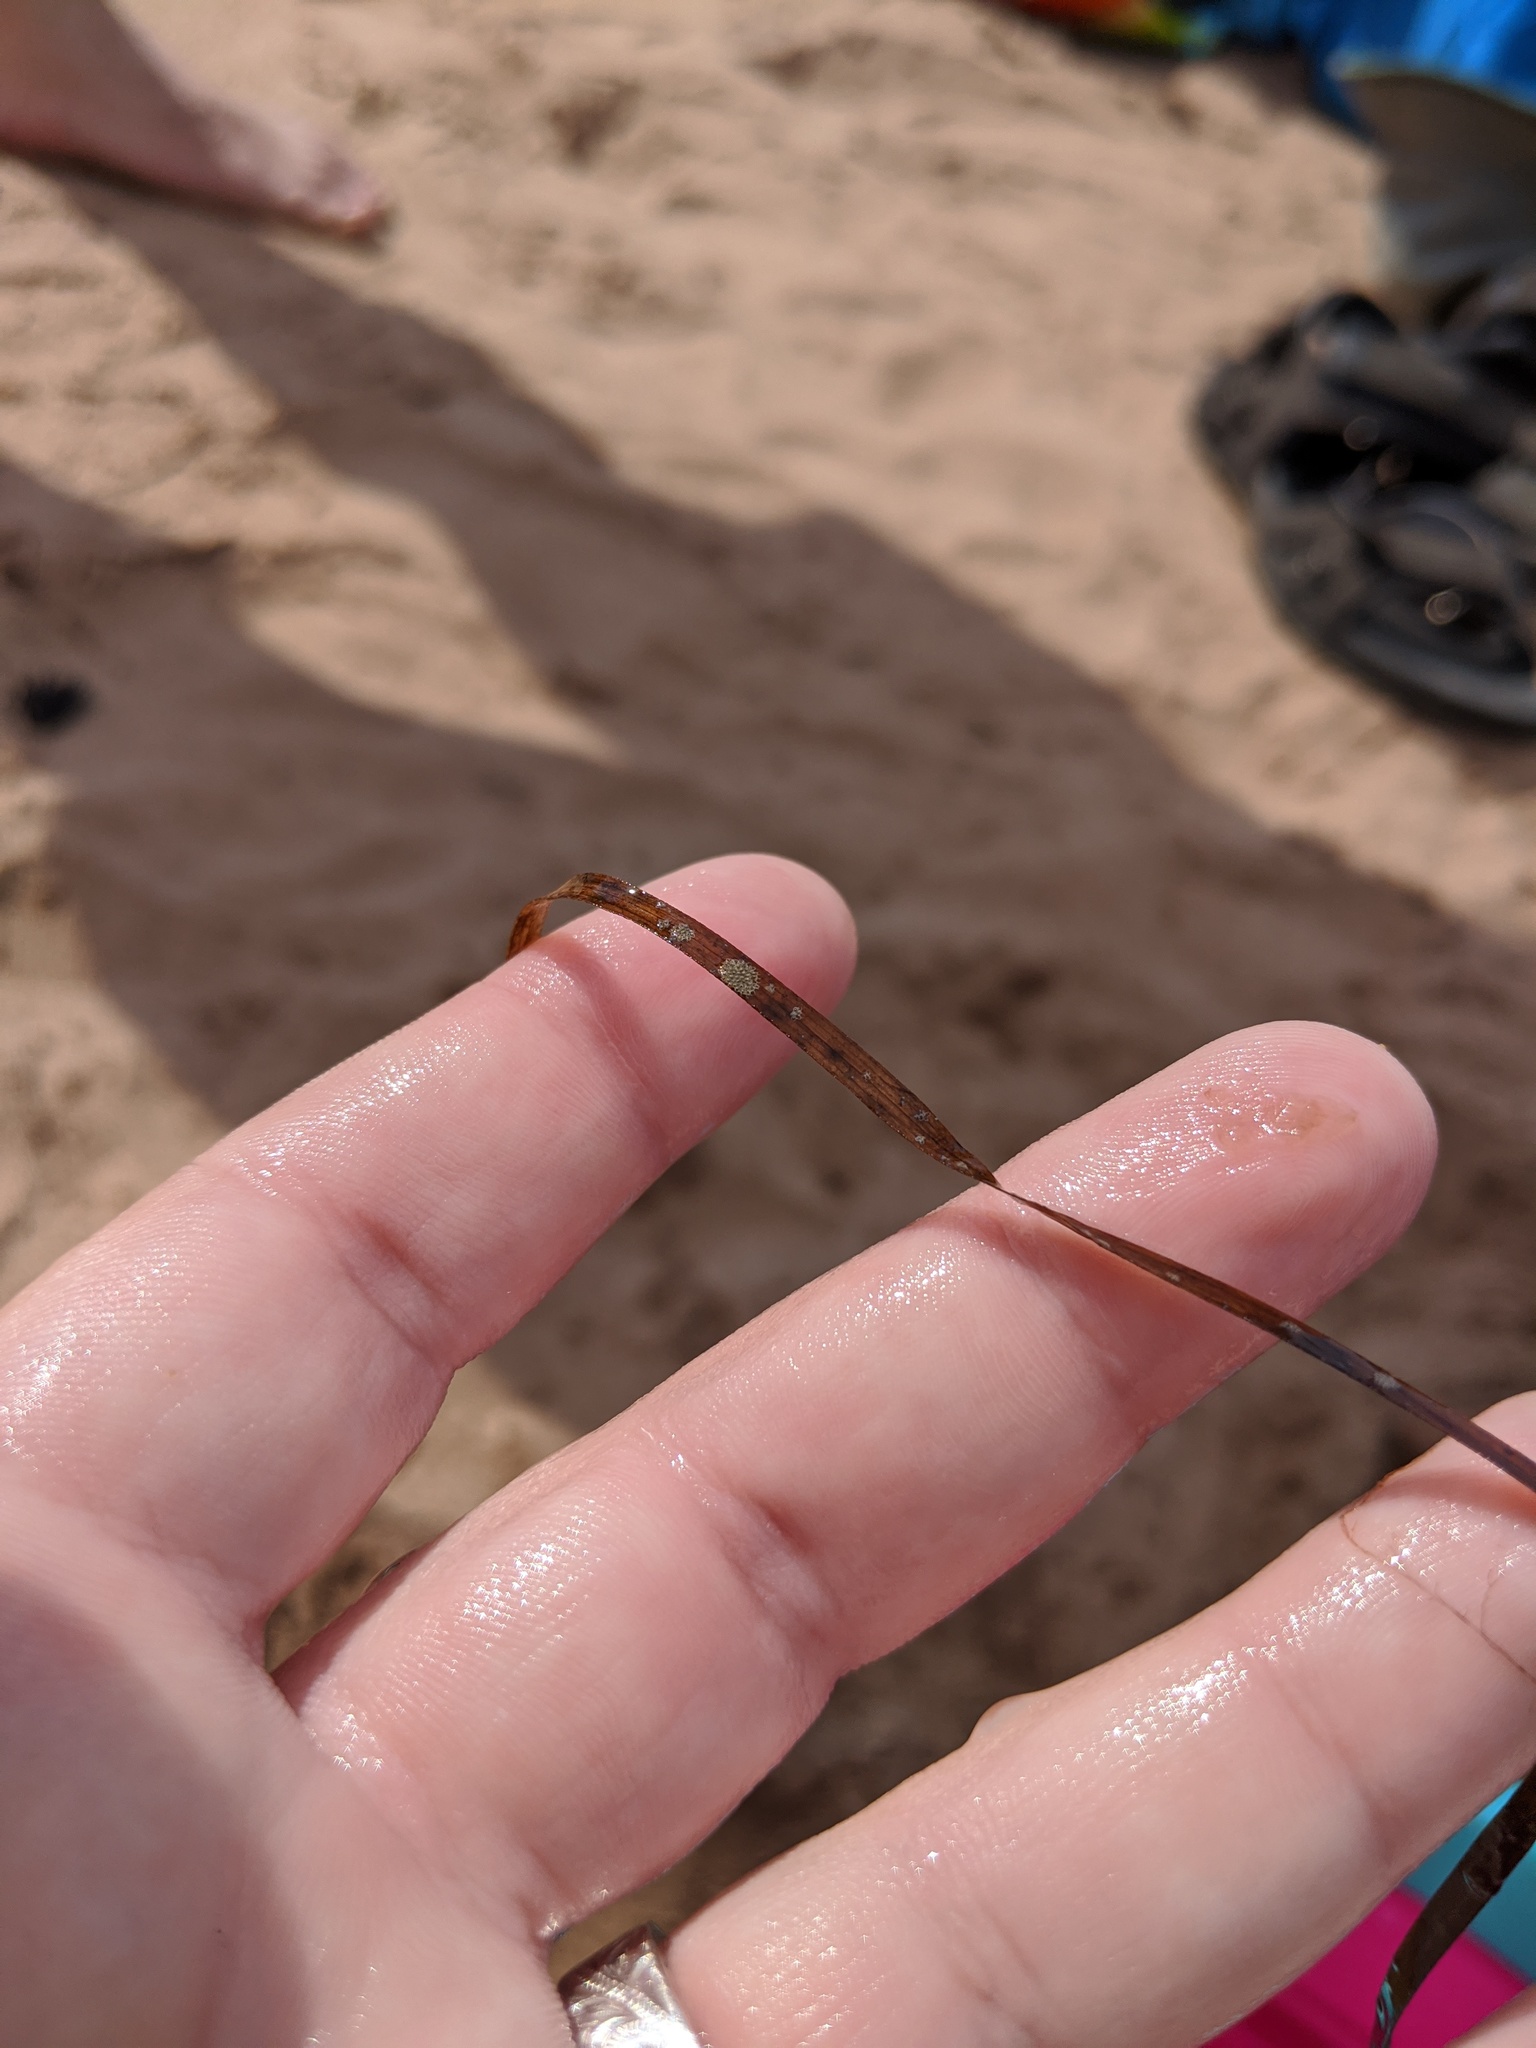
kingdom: Plantae
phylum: Tracheophyta
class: Liliopsida
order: Alismatales
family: Zosteraceae
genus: Zostera
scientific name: Zostera marina
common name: Eelgrass
